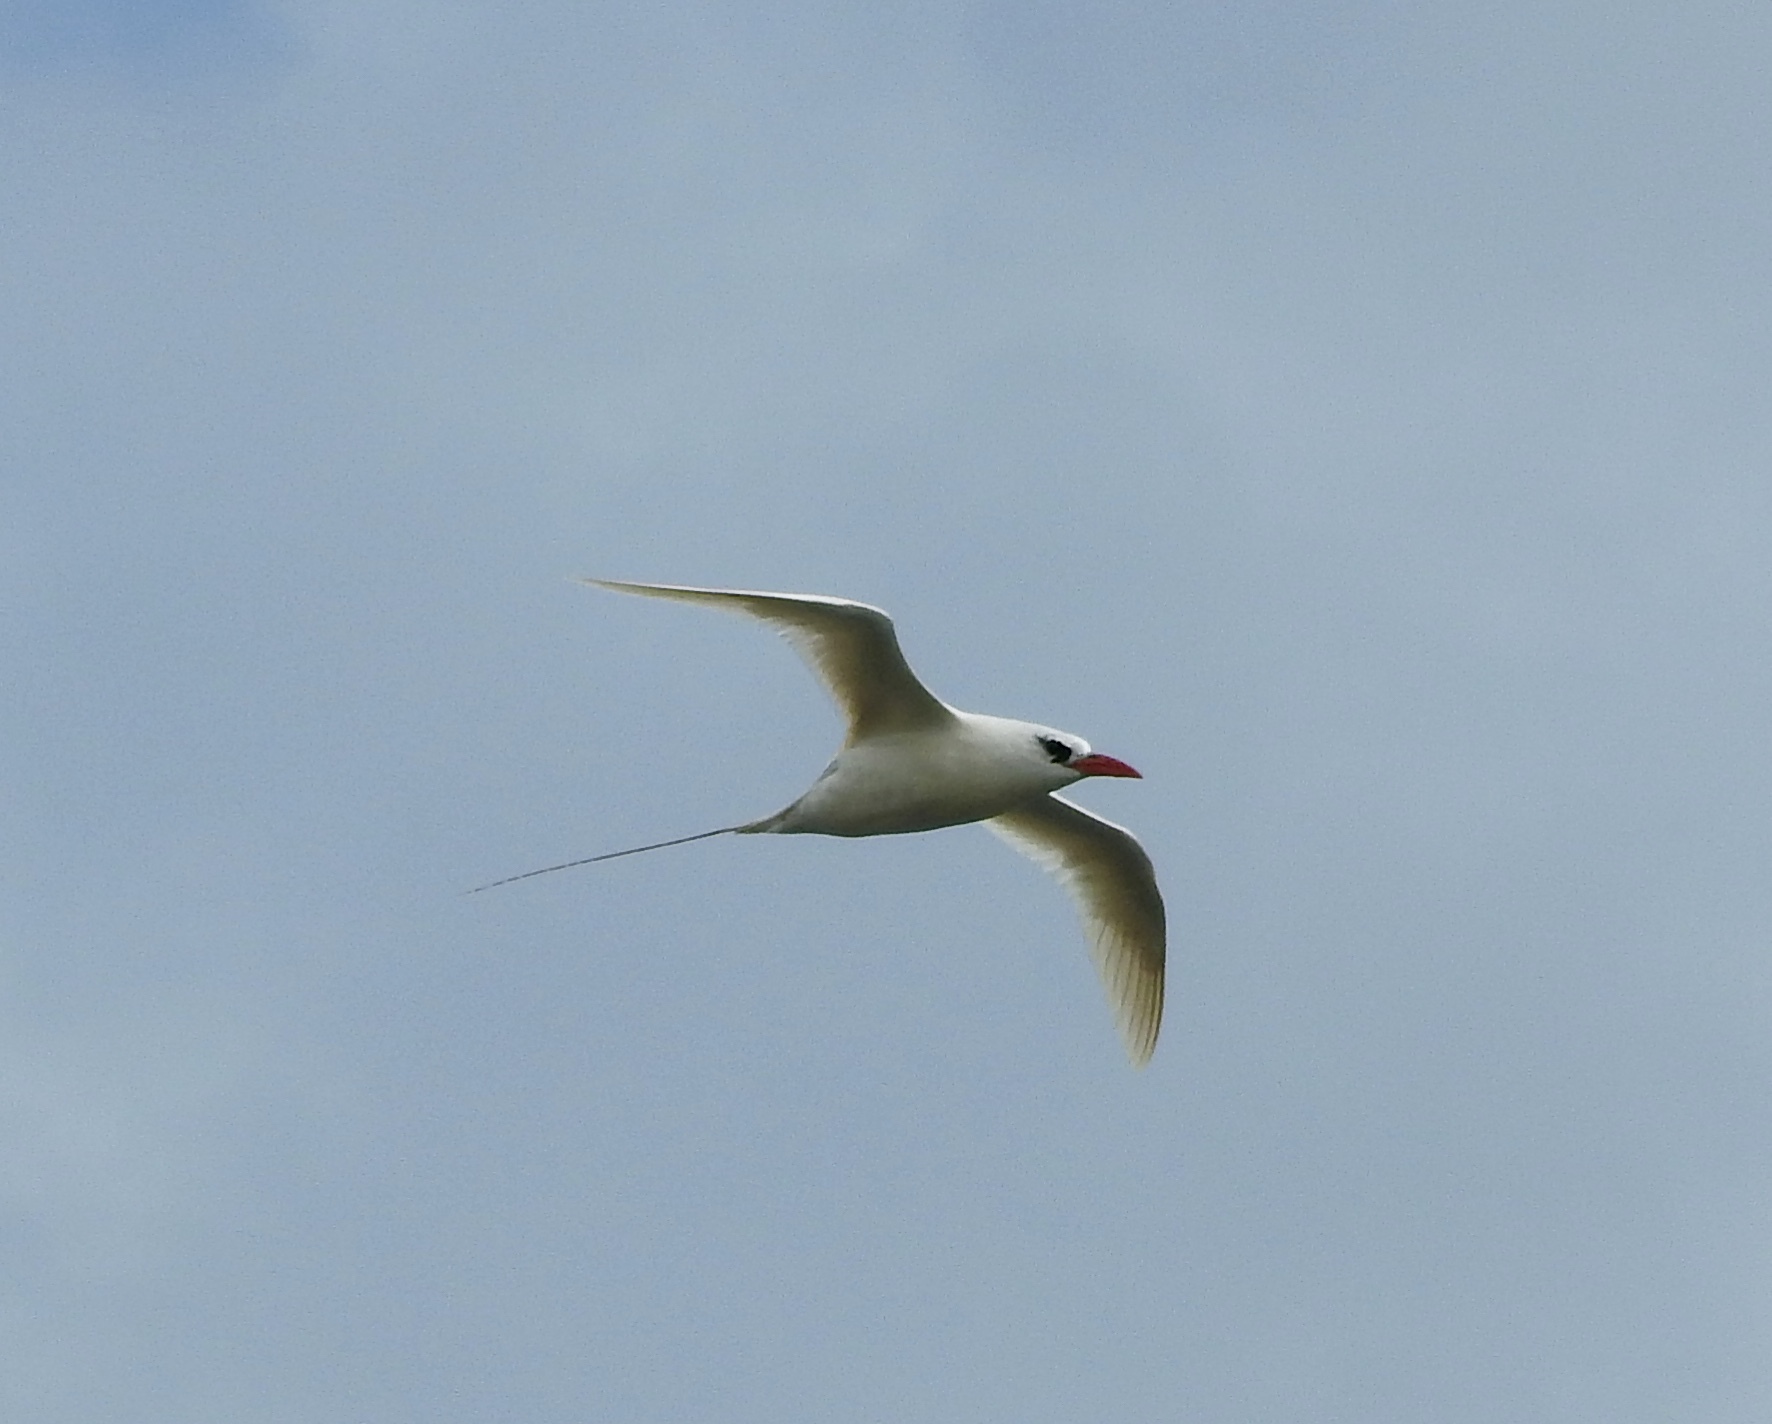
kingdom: Animalia
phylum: Chordata
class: Aves
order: Phaethontiformes
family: Phaethontidae
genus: Phaethon
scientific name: Phaethon rubricauda
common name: Red-tailed tropicbird
